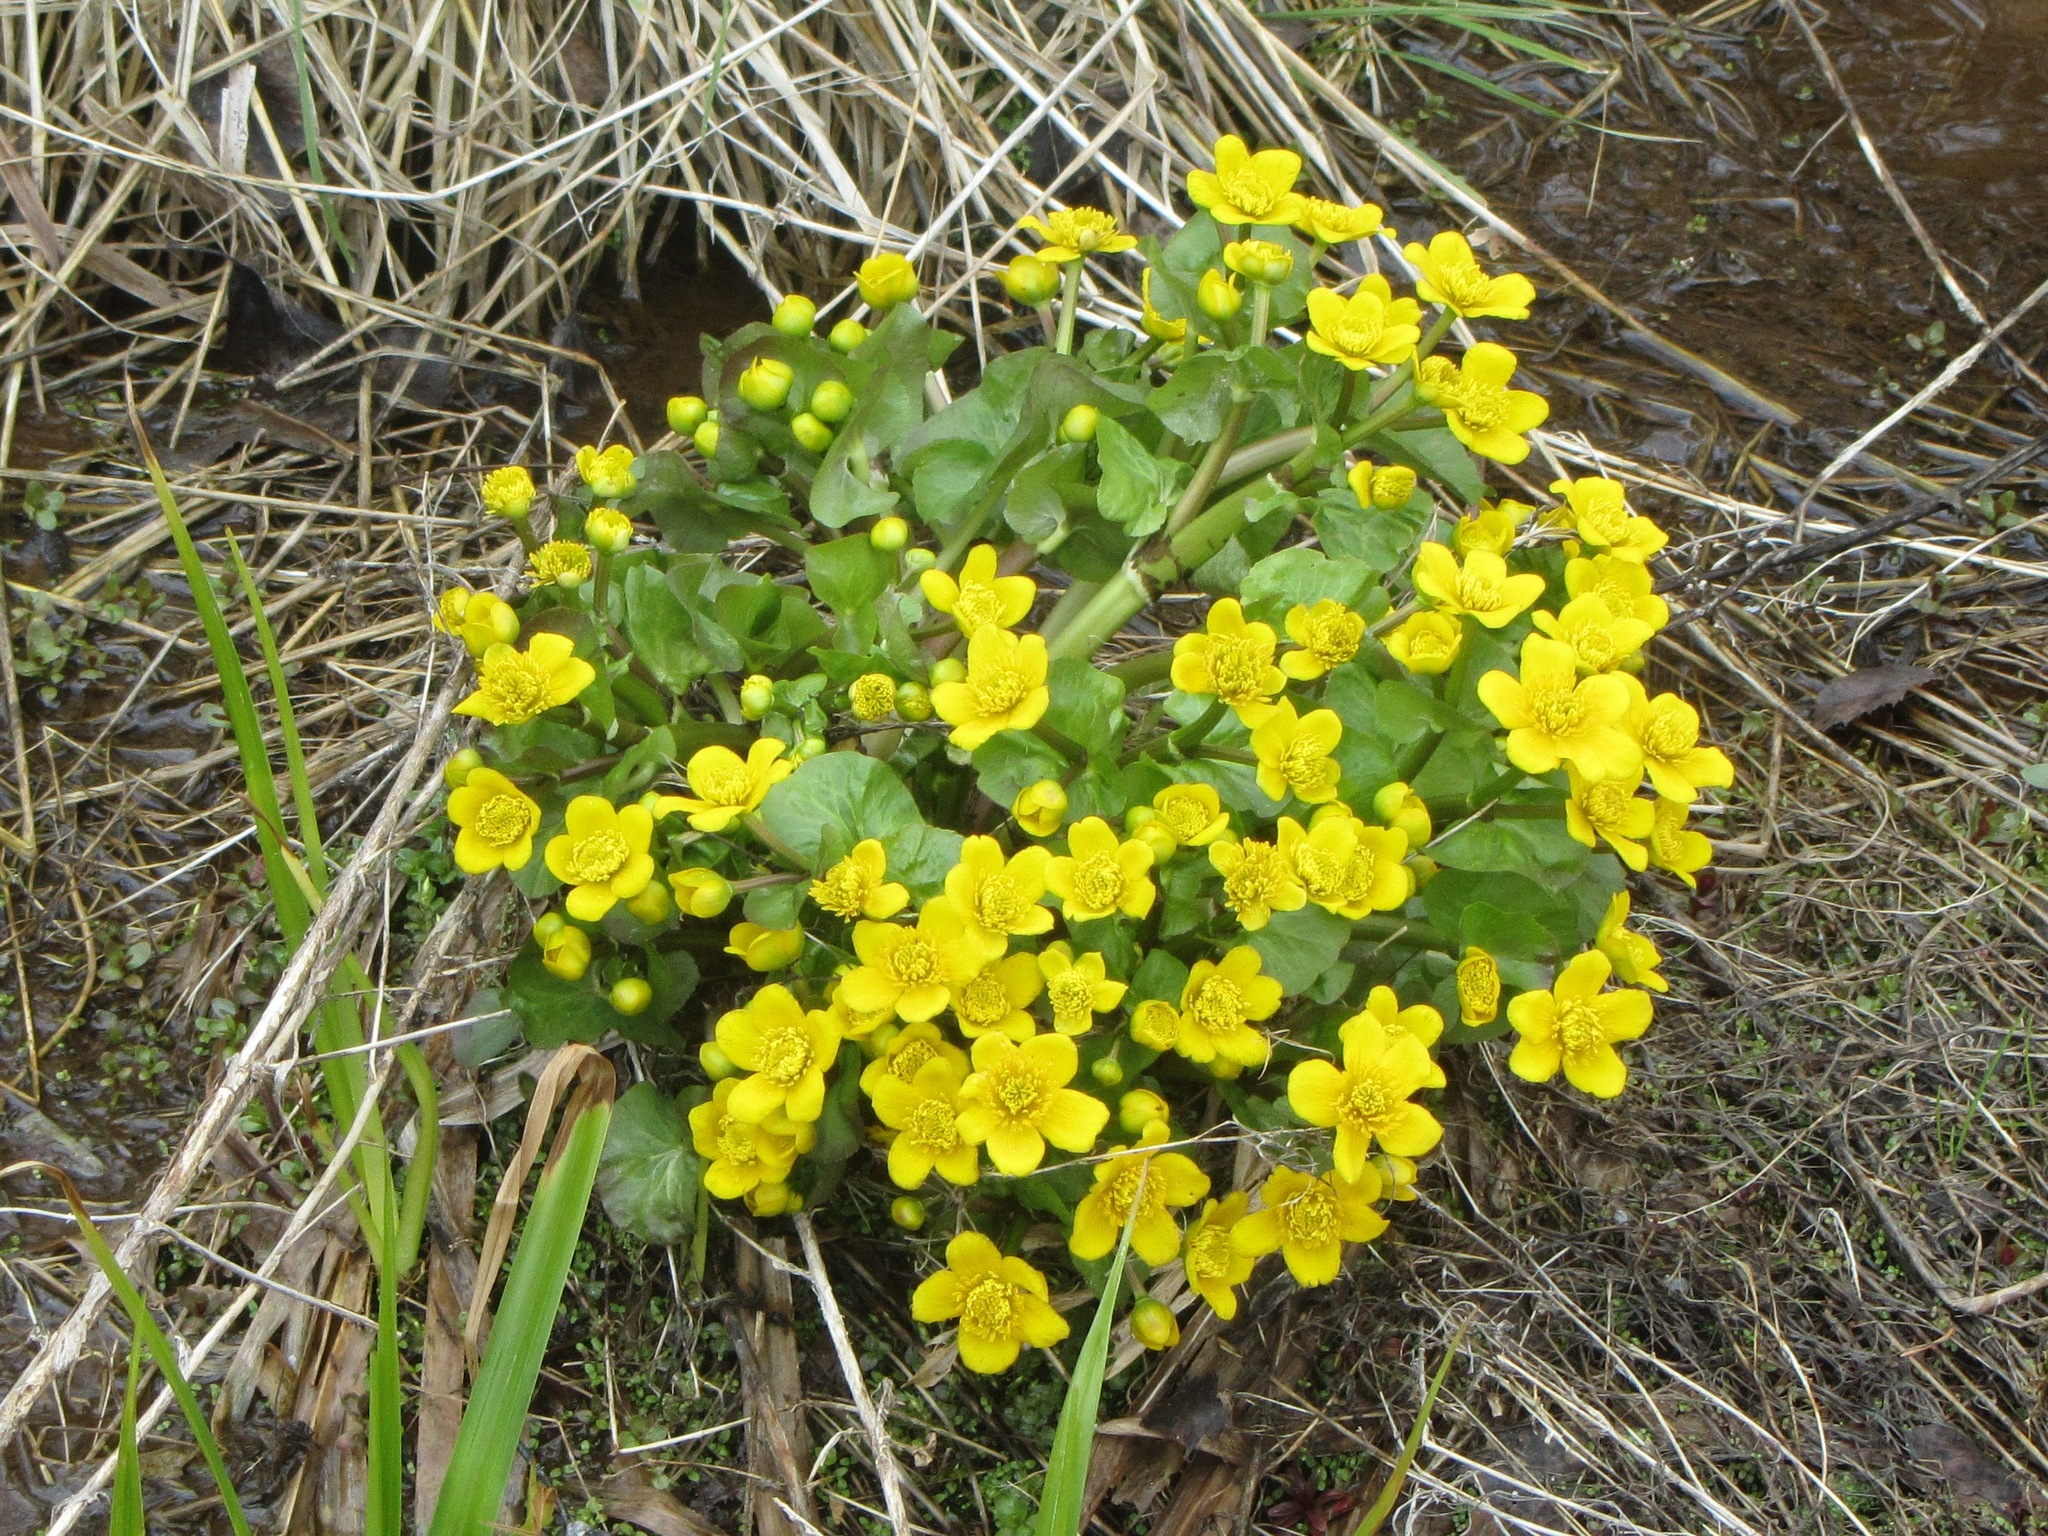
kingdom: Plantae
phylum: Tracheophyta
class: Magnoliopsida
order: Ranunculales
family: Ranunculaceae
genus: Caltha
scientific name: Caltha palustris
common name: Marsh marigold
